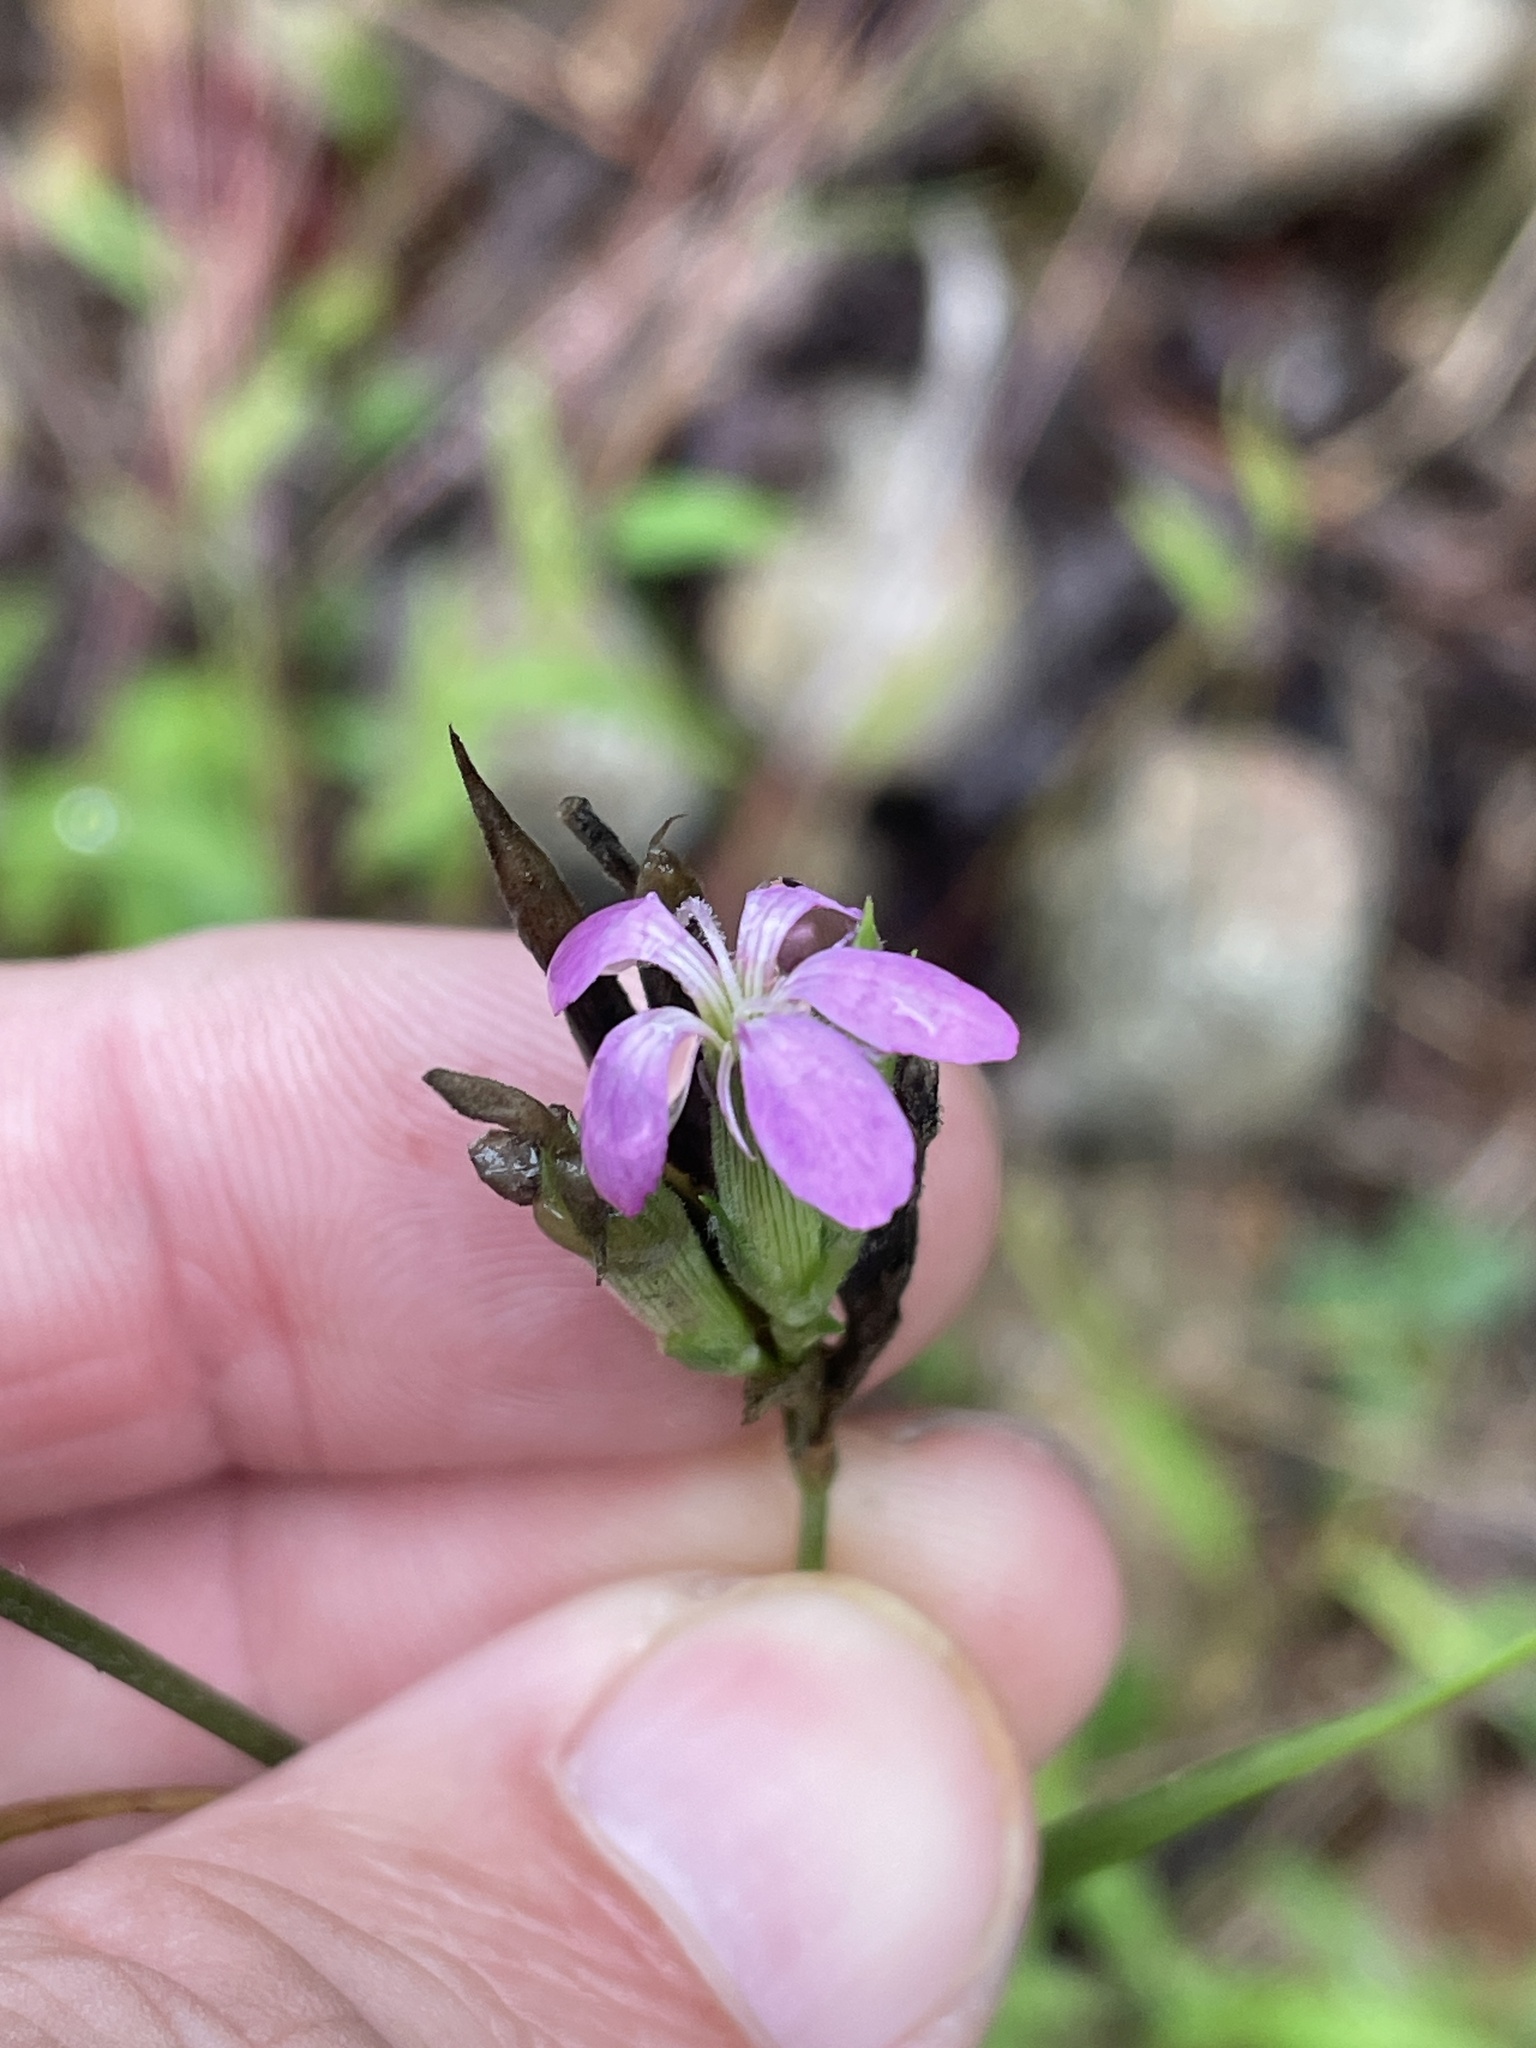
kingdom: Plantae
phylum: Tracheophyta
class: Magnoliopsida
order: Caryophyllales
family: Caryophyllaceae
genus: Dianthus
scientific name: Dianthus armeria
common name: Deptford pink
